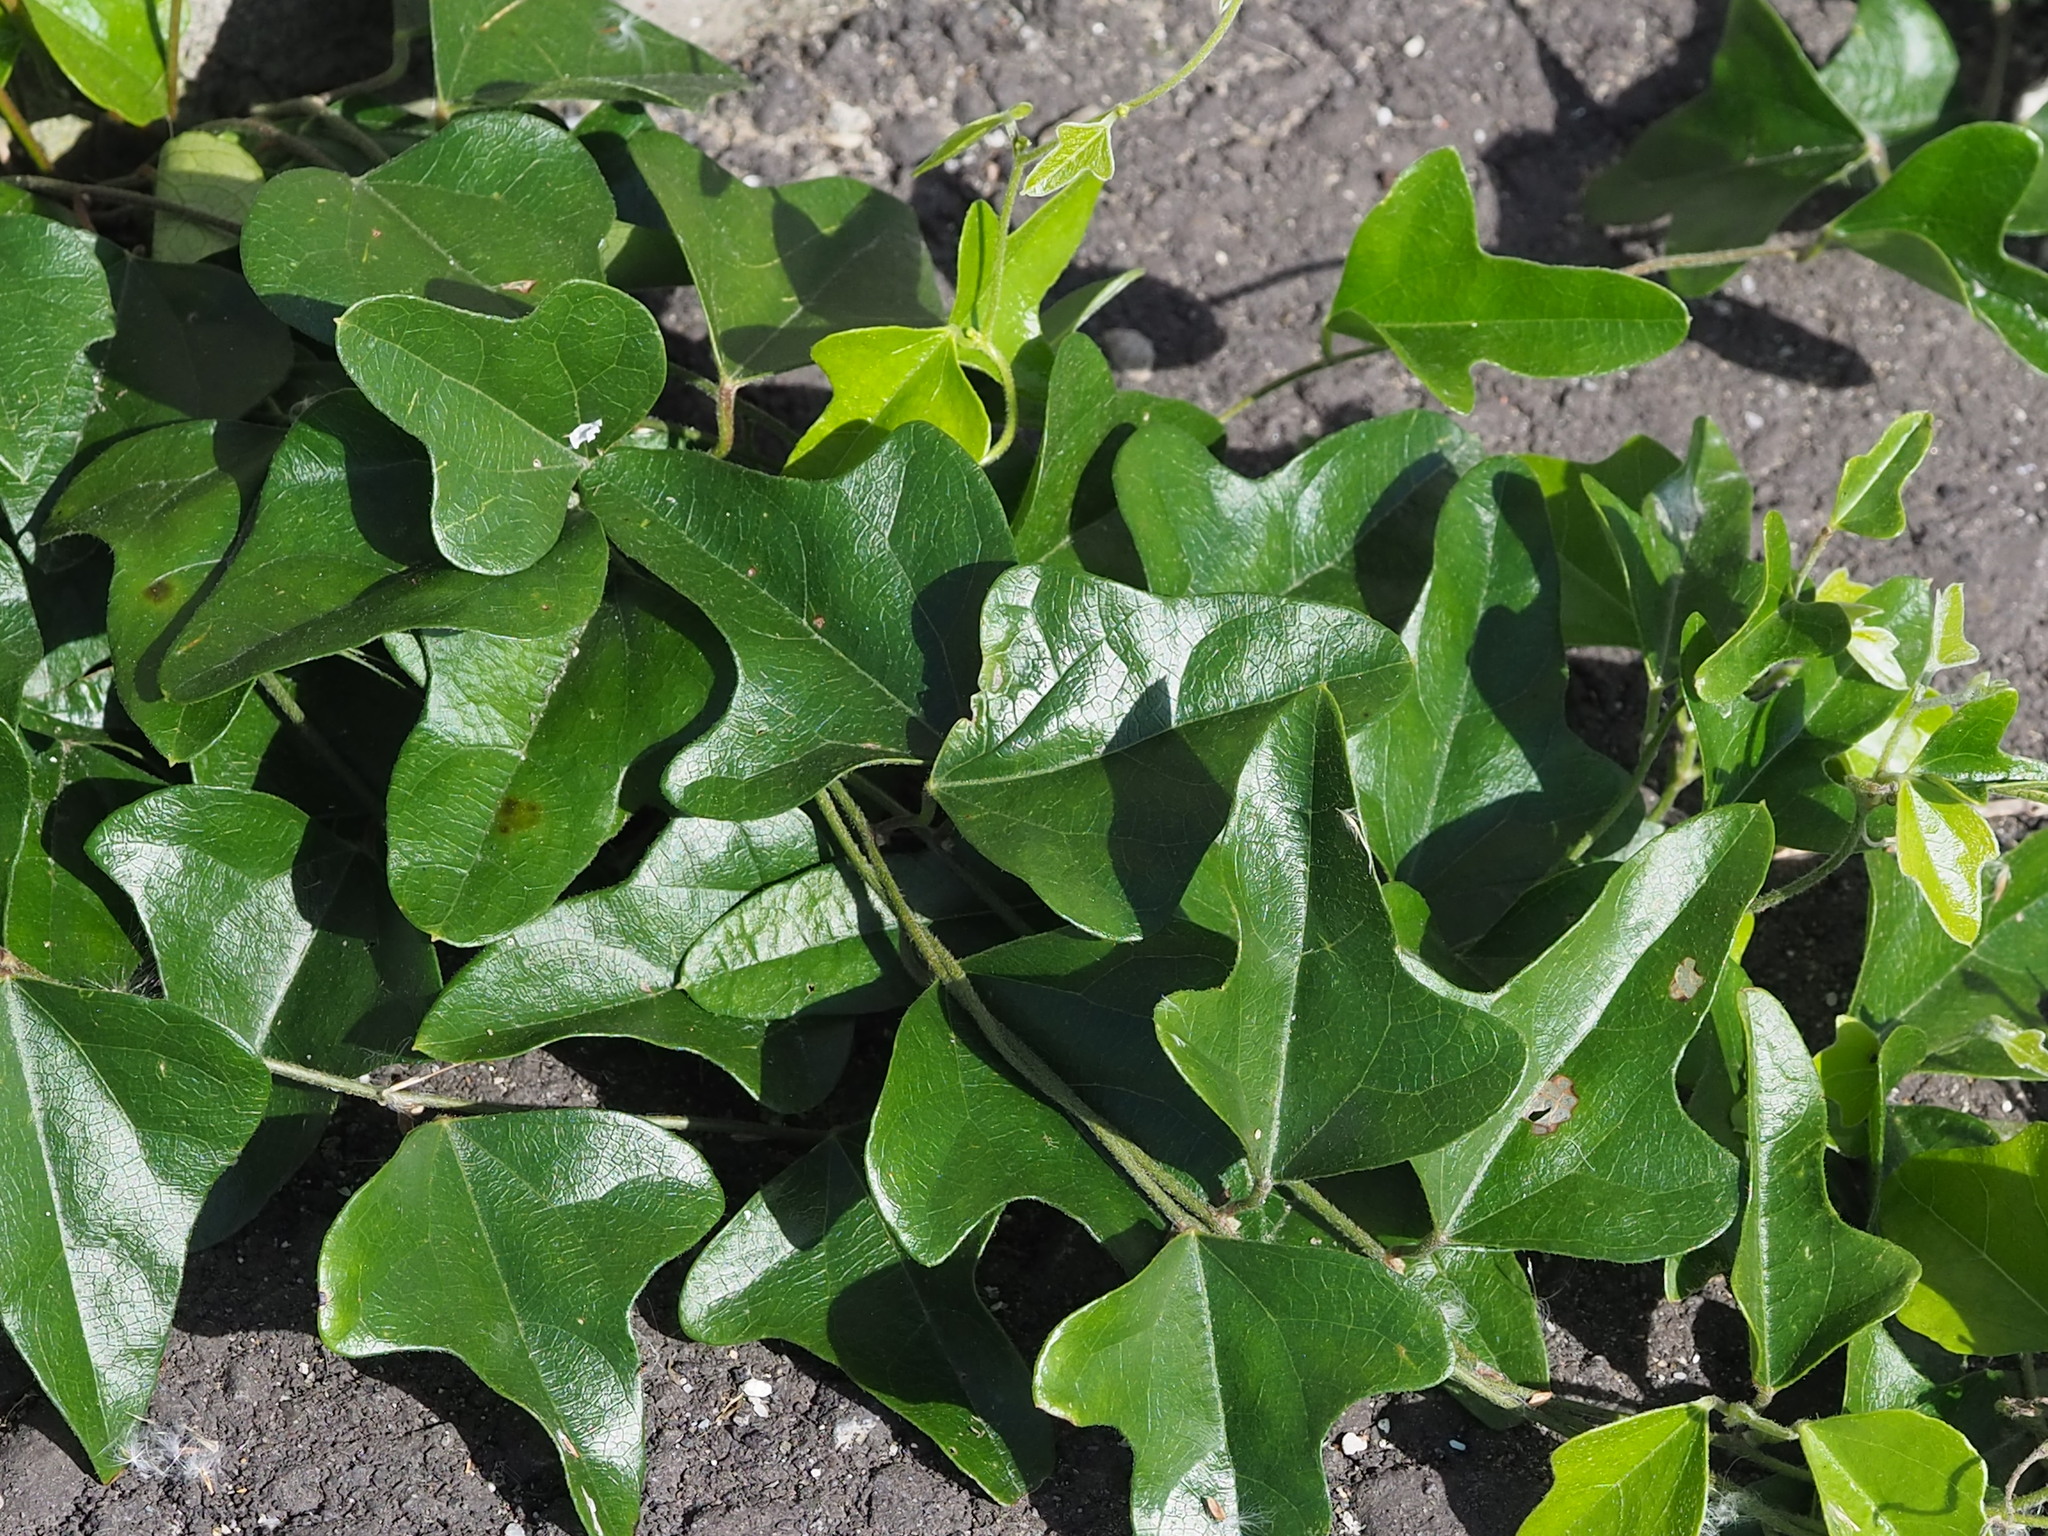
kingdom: Plantae
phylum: Tracheophyta
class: Magnoliopsida
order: Ranunculales
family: Menispermaceae
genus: Cocculus
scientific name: Cocculus orbiculatus
